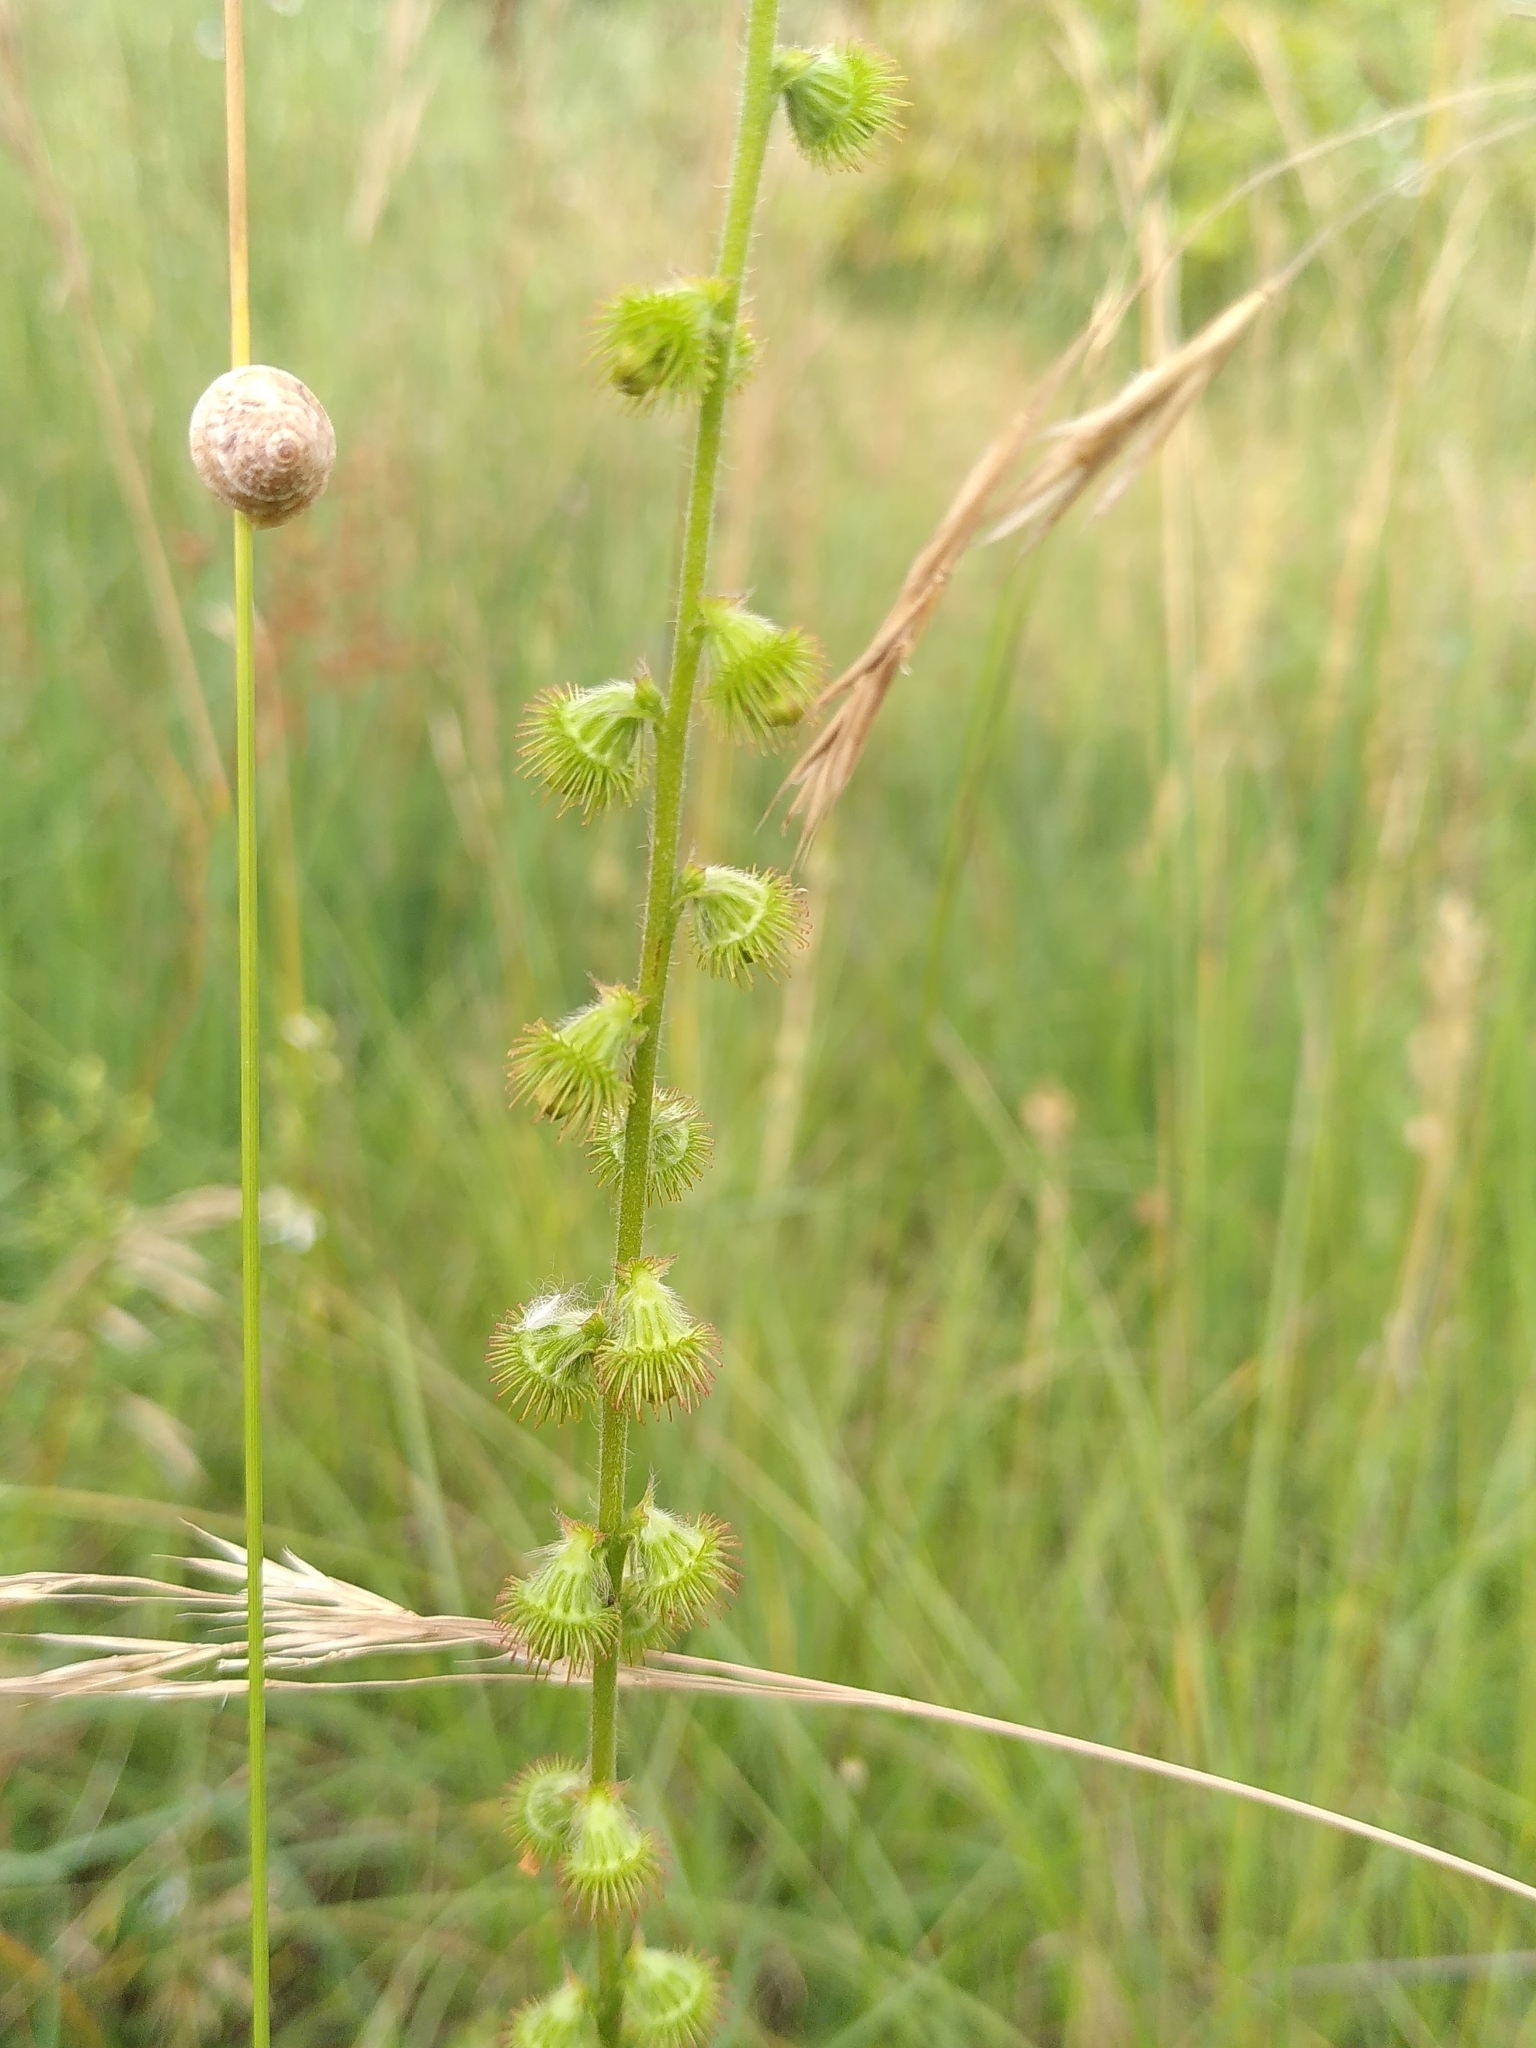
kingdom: Plantae
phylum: Tracheophyta
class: Magnoliopsida
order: Rosales
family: Rosaceae
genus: Agrimonia
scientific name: Agrimonia eupatoria
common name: Agrimony
